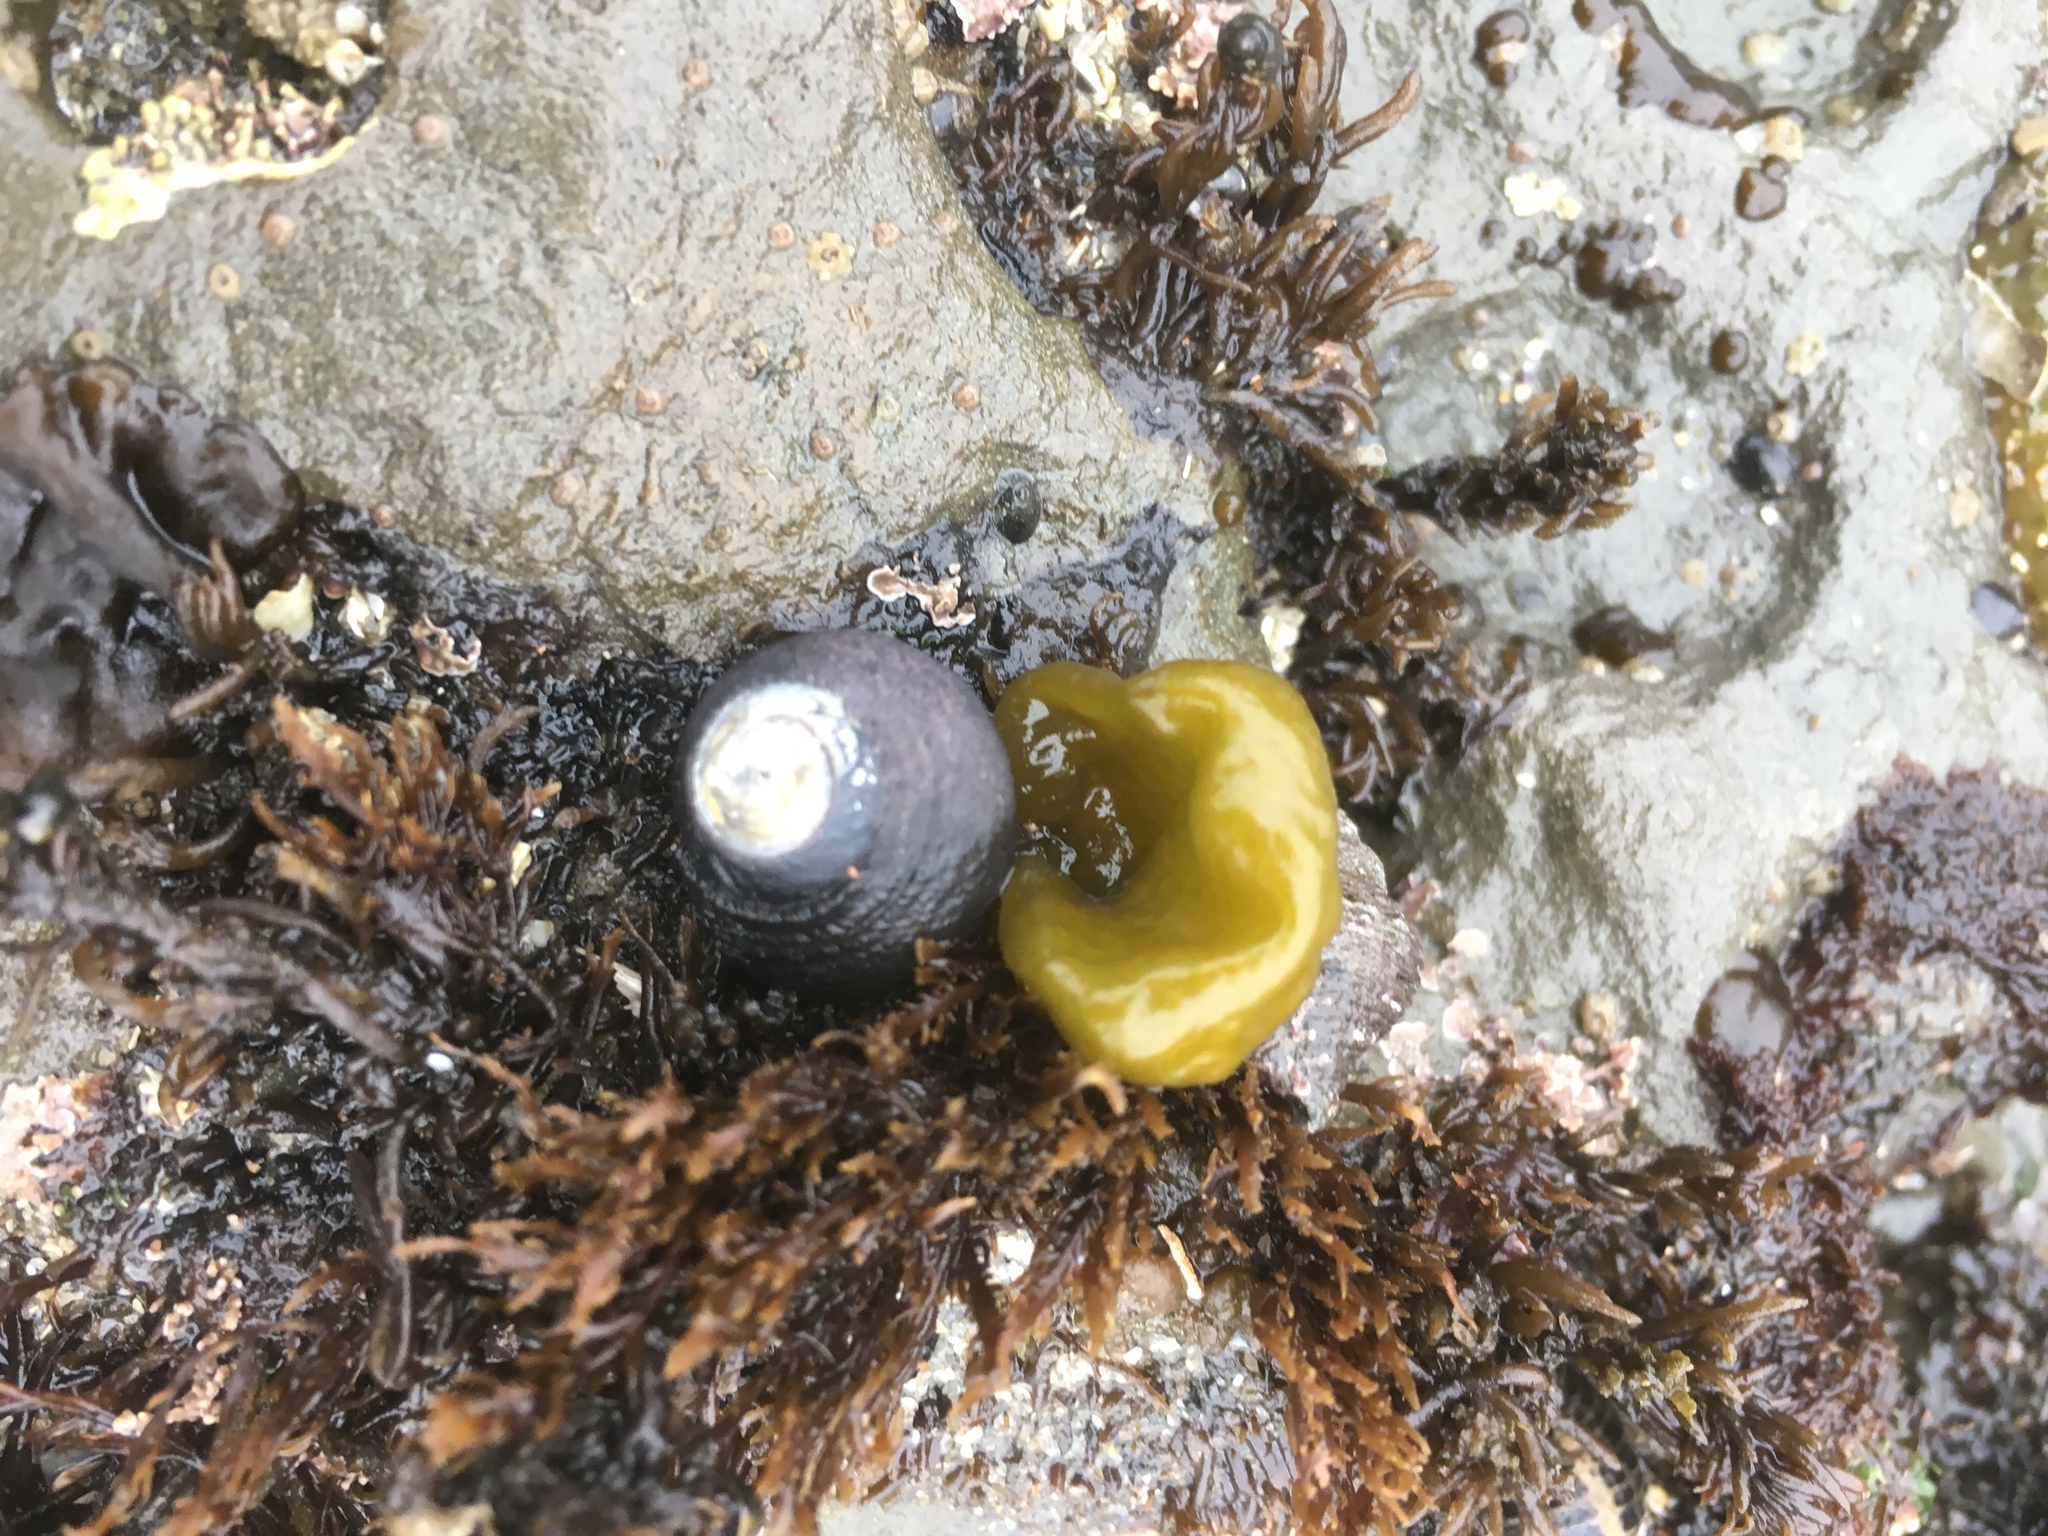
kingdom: Animalia
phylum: Mollusca
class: Gastropoda
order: Trochida
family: Tegulidae
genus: Tegula
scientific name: Tegula funebralis
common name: Black tegula
